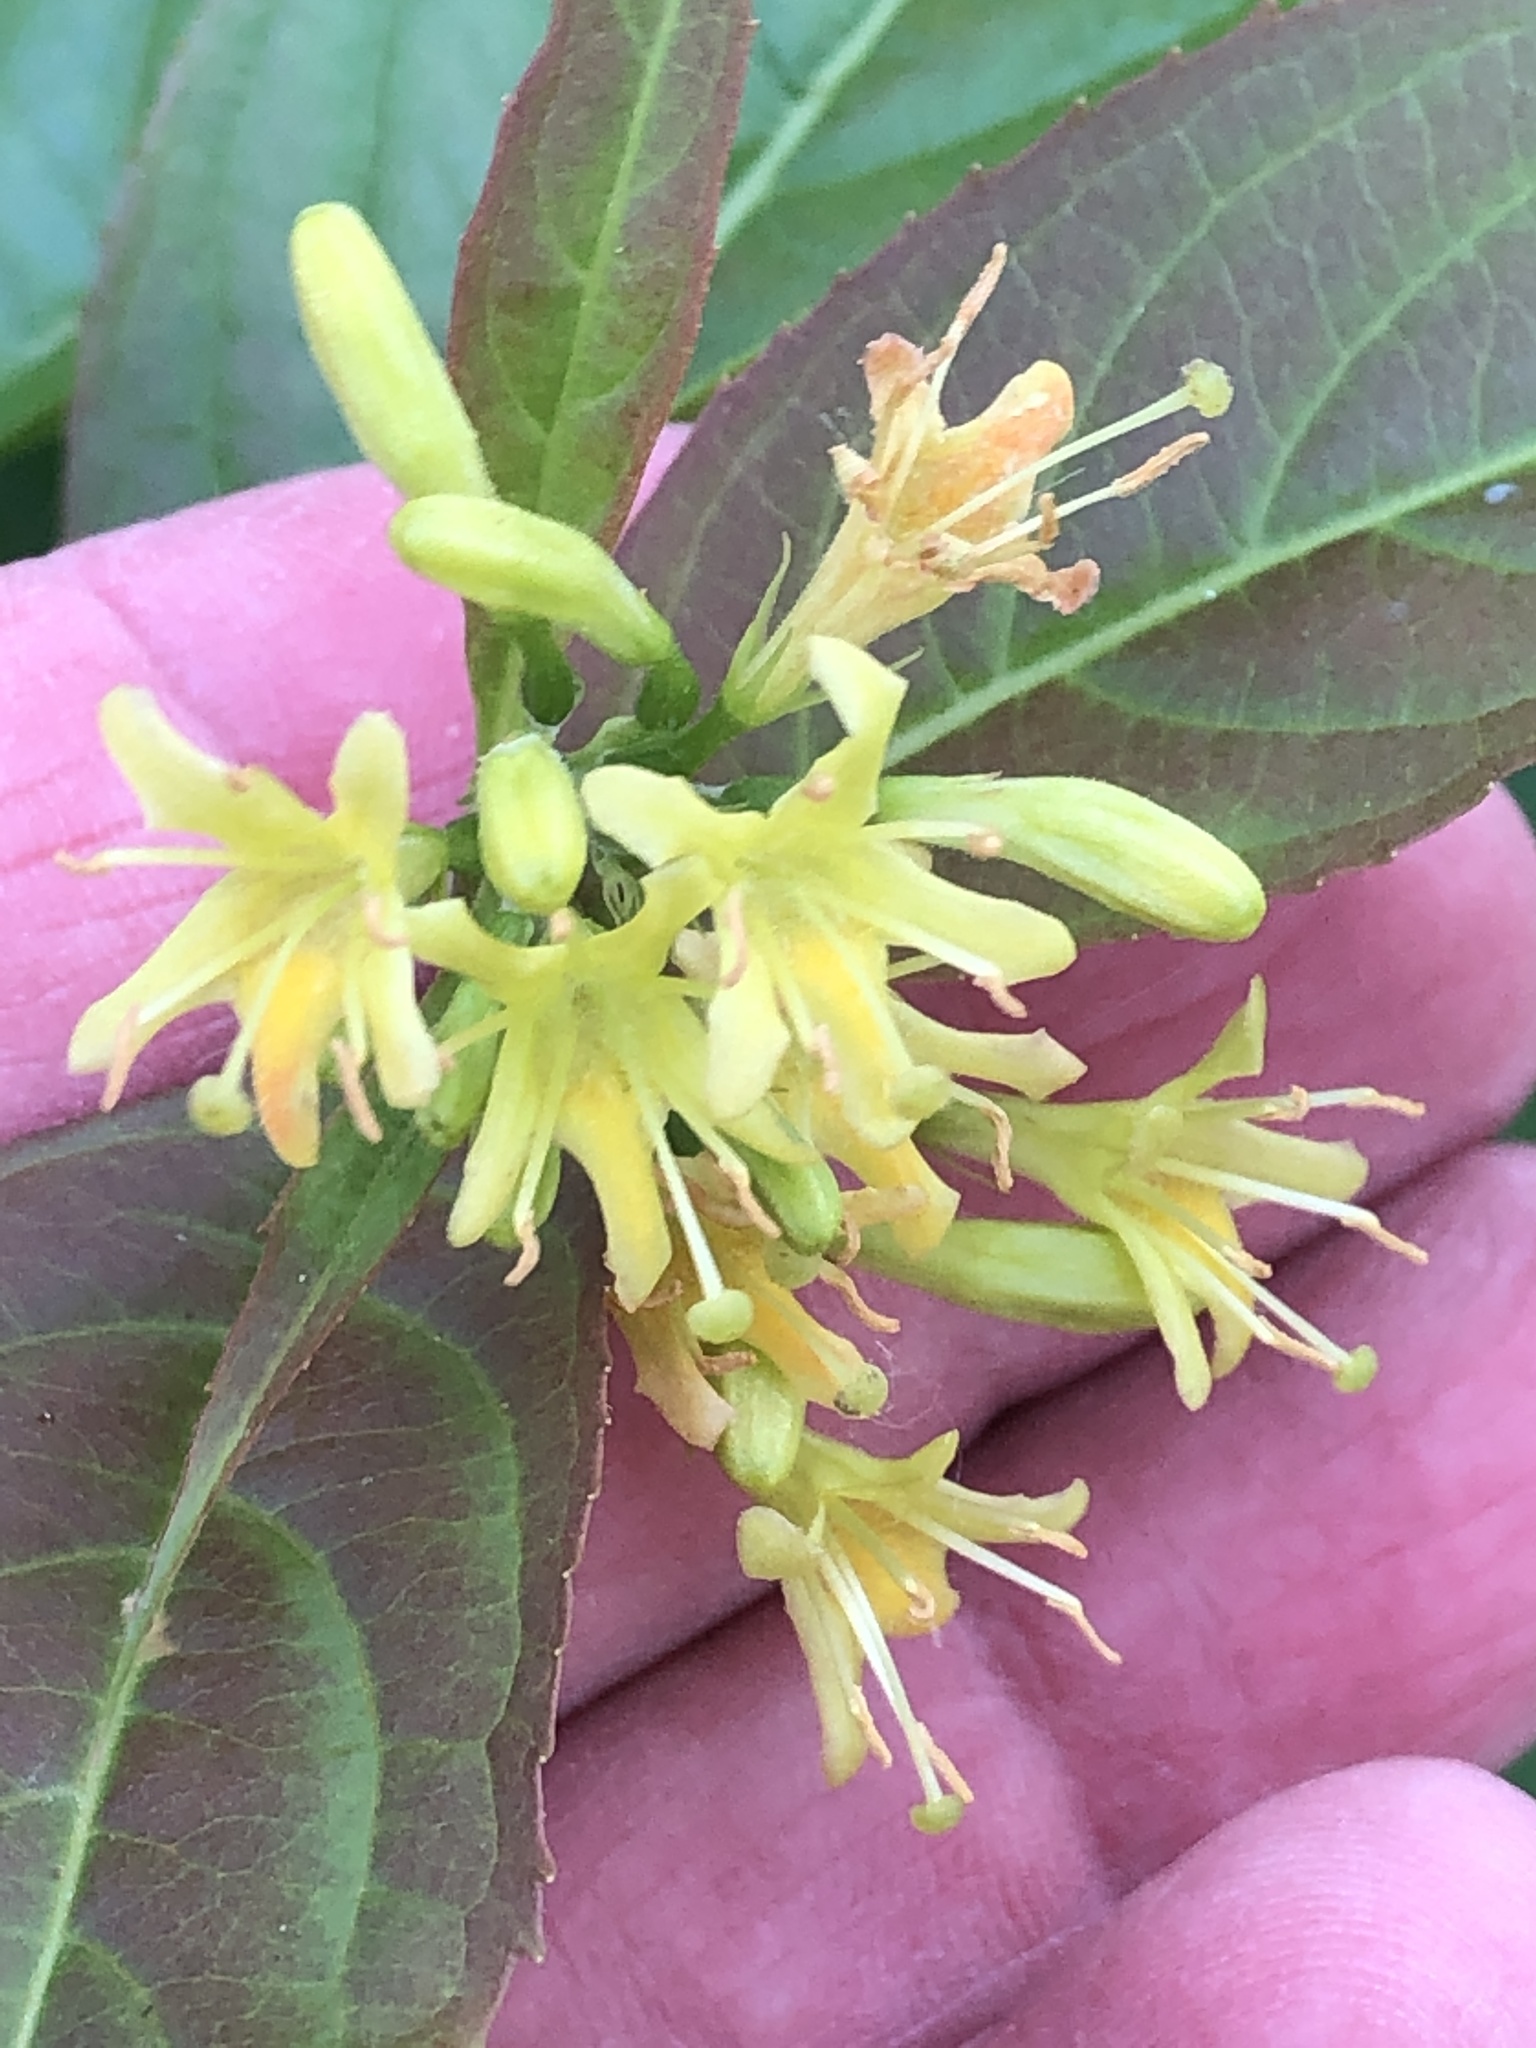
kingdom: Plantae
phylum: Tracheophyta
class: Magnoliopsida
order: Dipsacales
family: Caprifoliaceae
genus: Diervilla
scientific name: Diervilla lonicera
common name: Bush-honeysuckle
